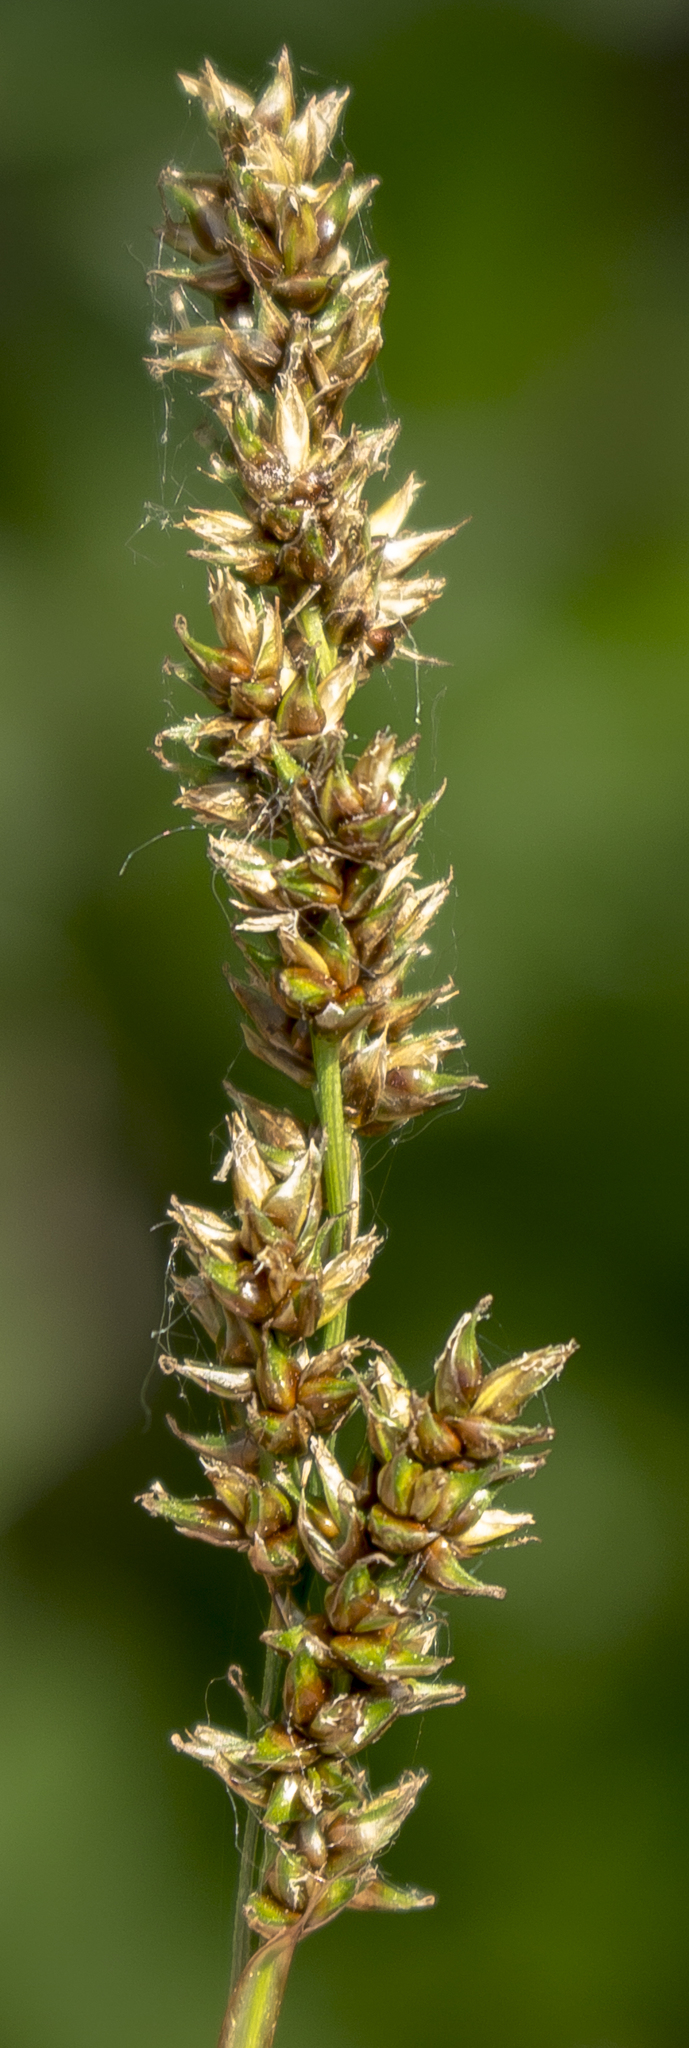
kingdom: Plantae
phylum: Tracheophyta
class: Liliopsida
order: Poales
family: Cyperaceae
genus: Carex
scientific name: Carex diandra
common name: Lesser tussock-sedge
